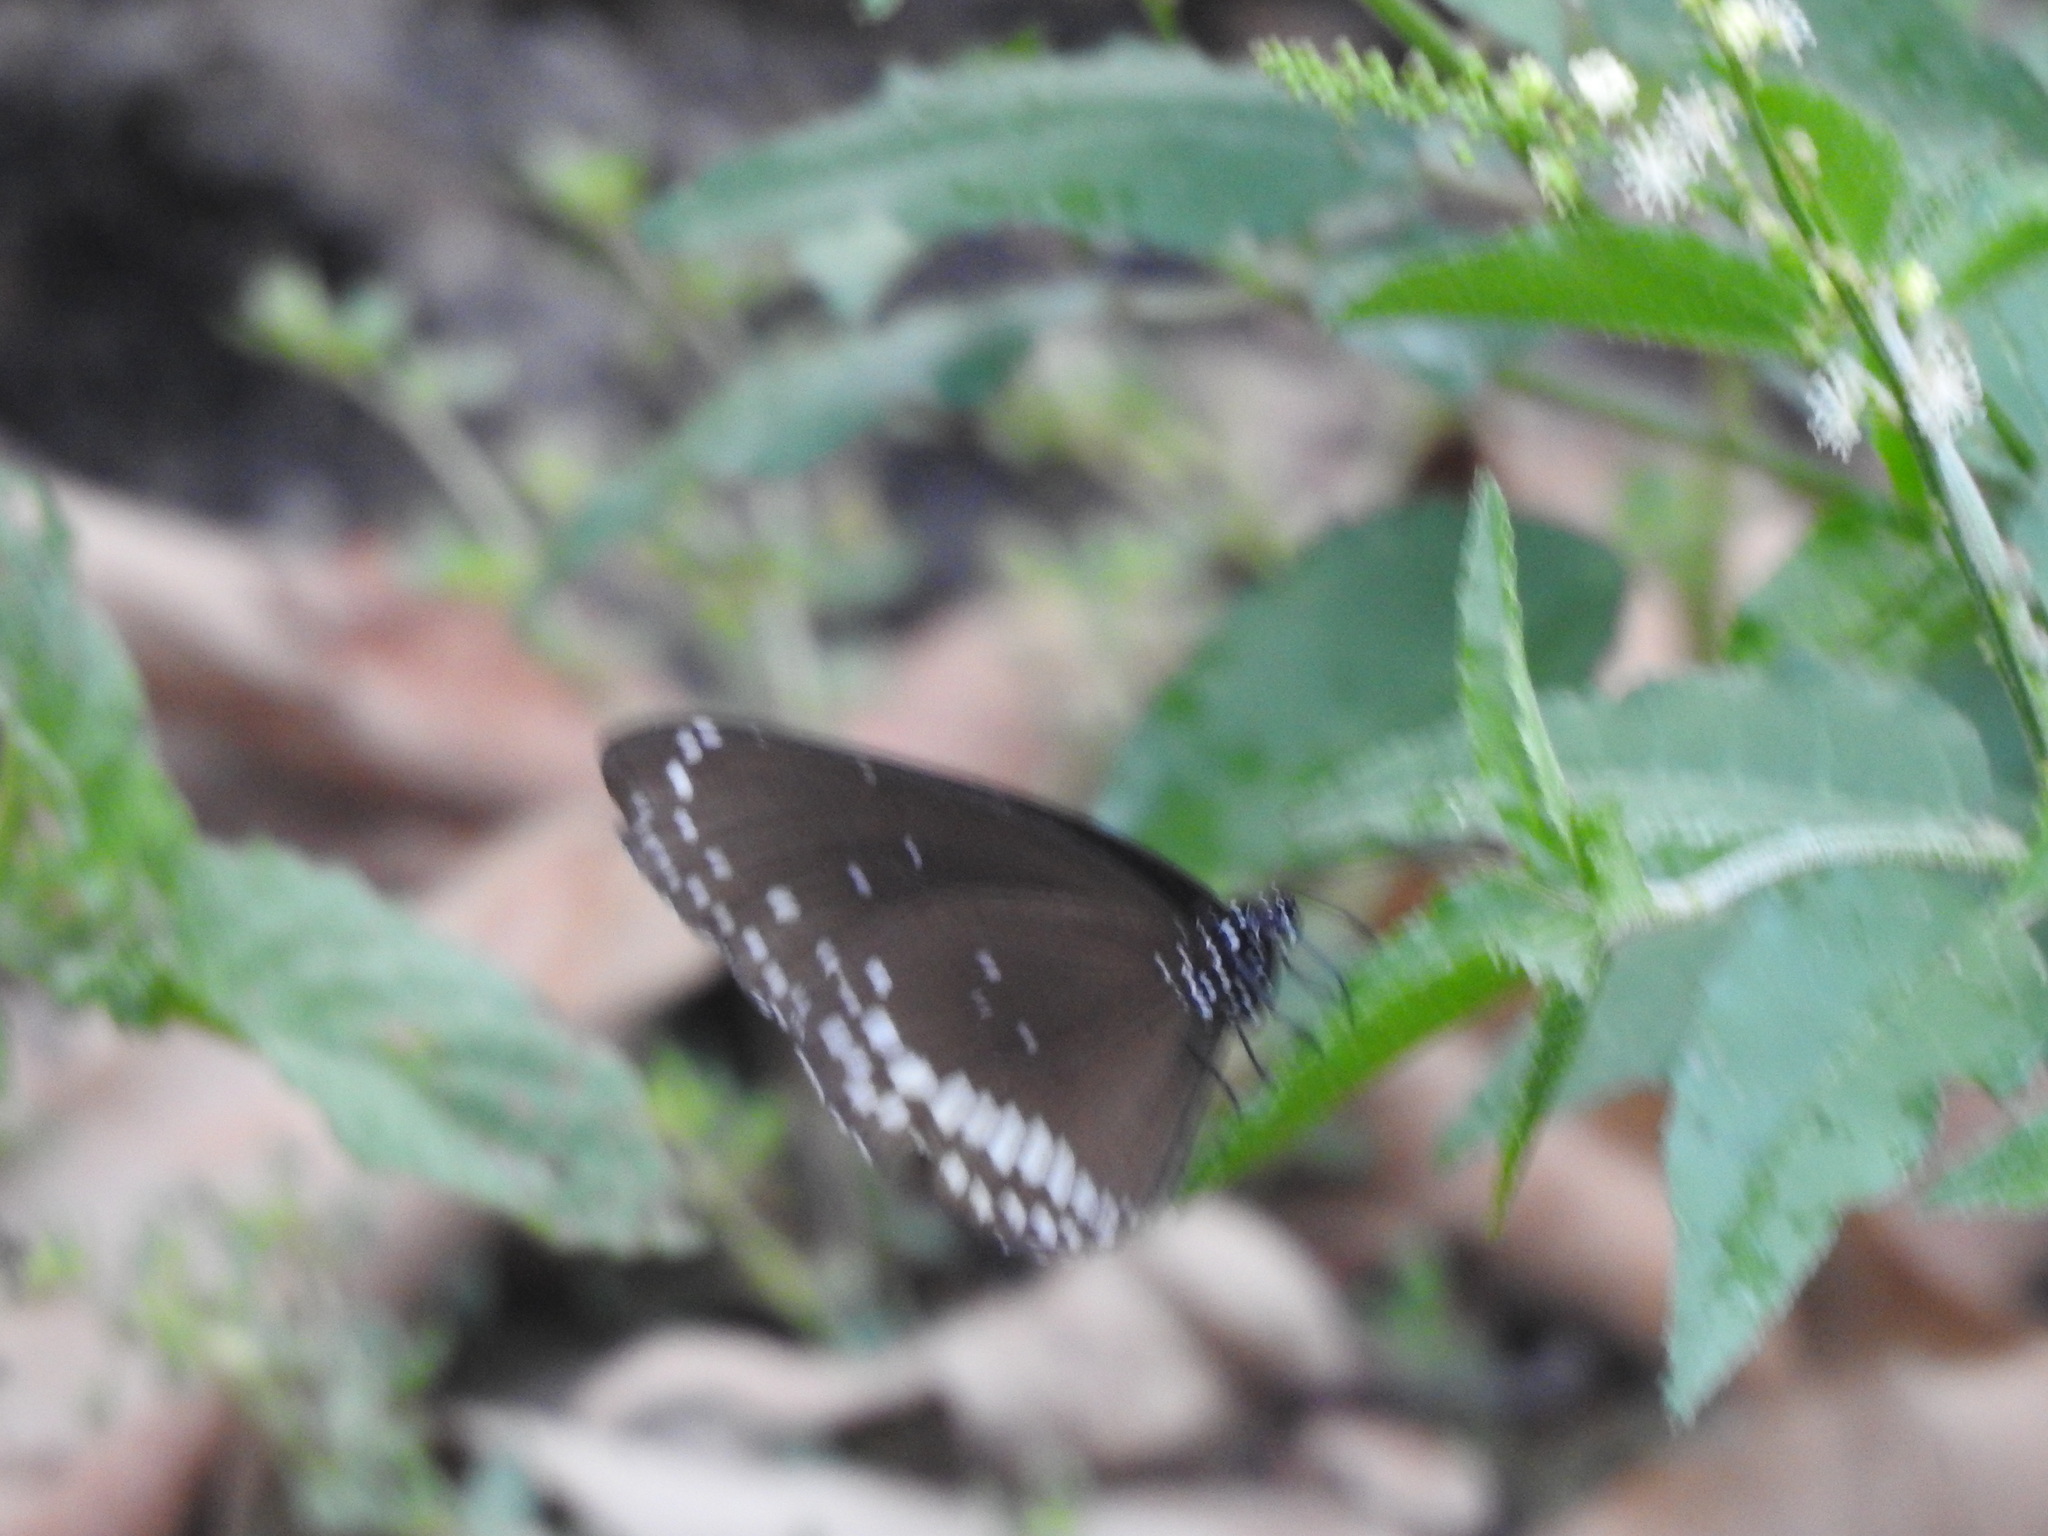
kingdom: Animalia
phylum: Arthropoda
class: Insecta
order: Lepidoptera
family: Nymphalidae
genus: Euploea
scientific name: Euploea core
